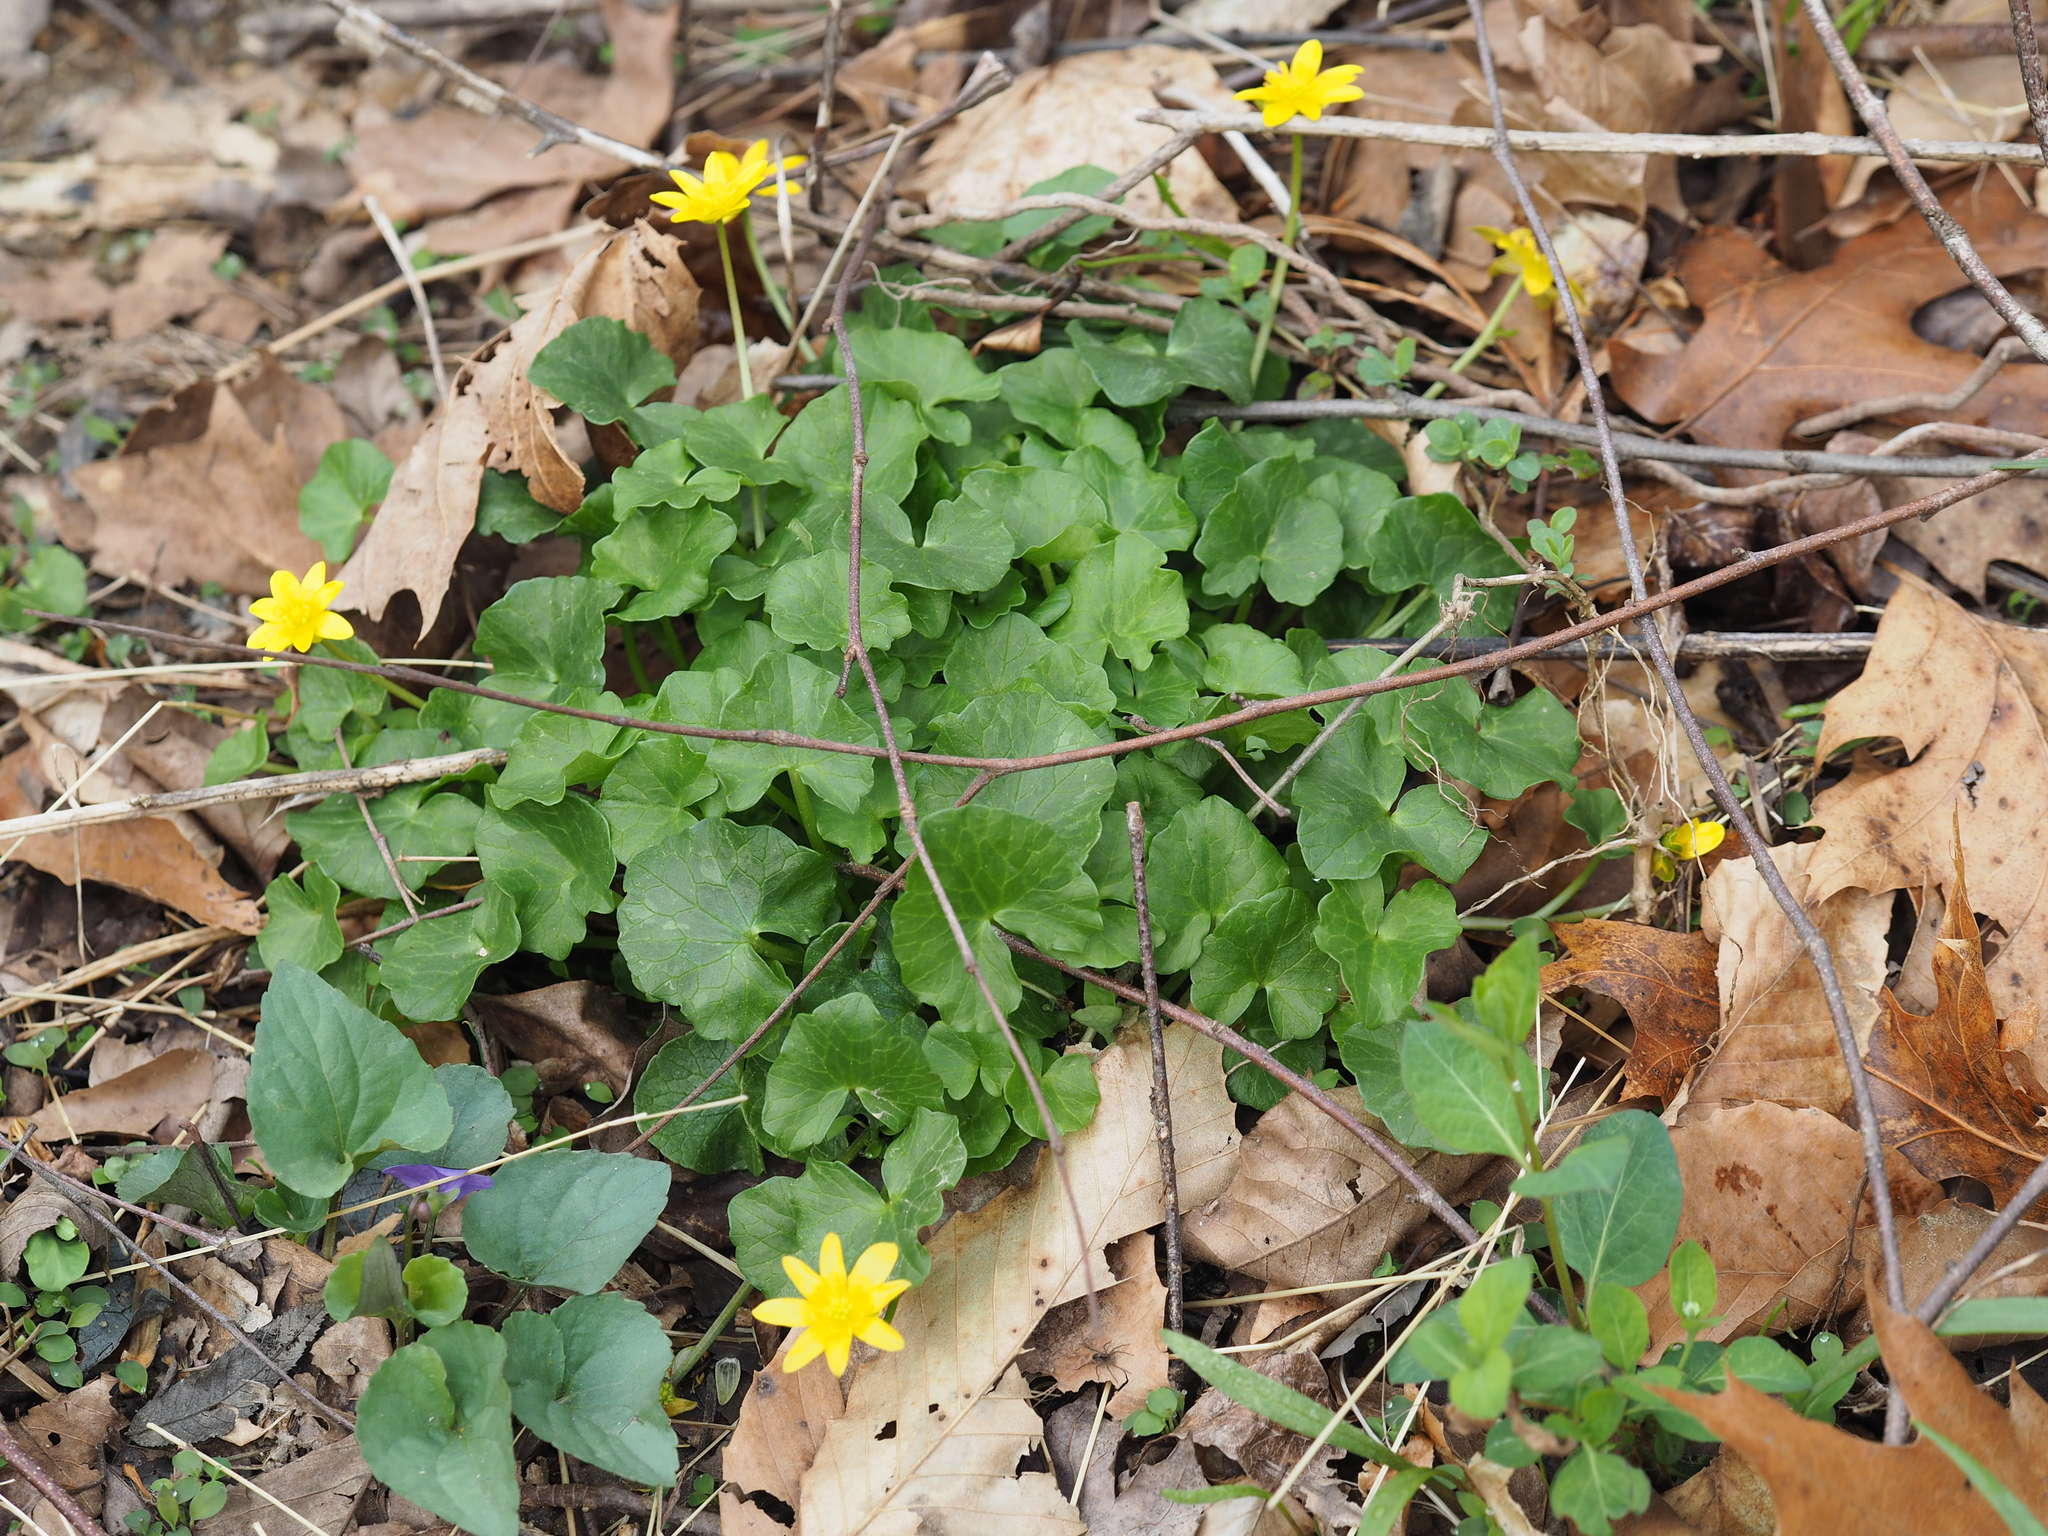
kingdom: Plantae
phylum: Tracheophyta
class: Magnoliopsida
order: Ranunculales
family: Ranunculaceae
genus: Ficaria
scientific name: Ficaria verna
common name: Lesser celandine
